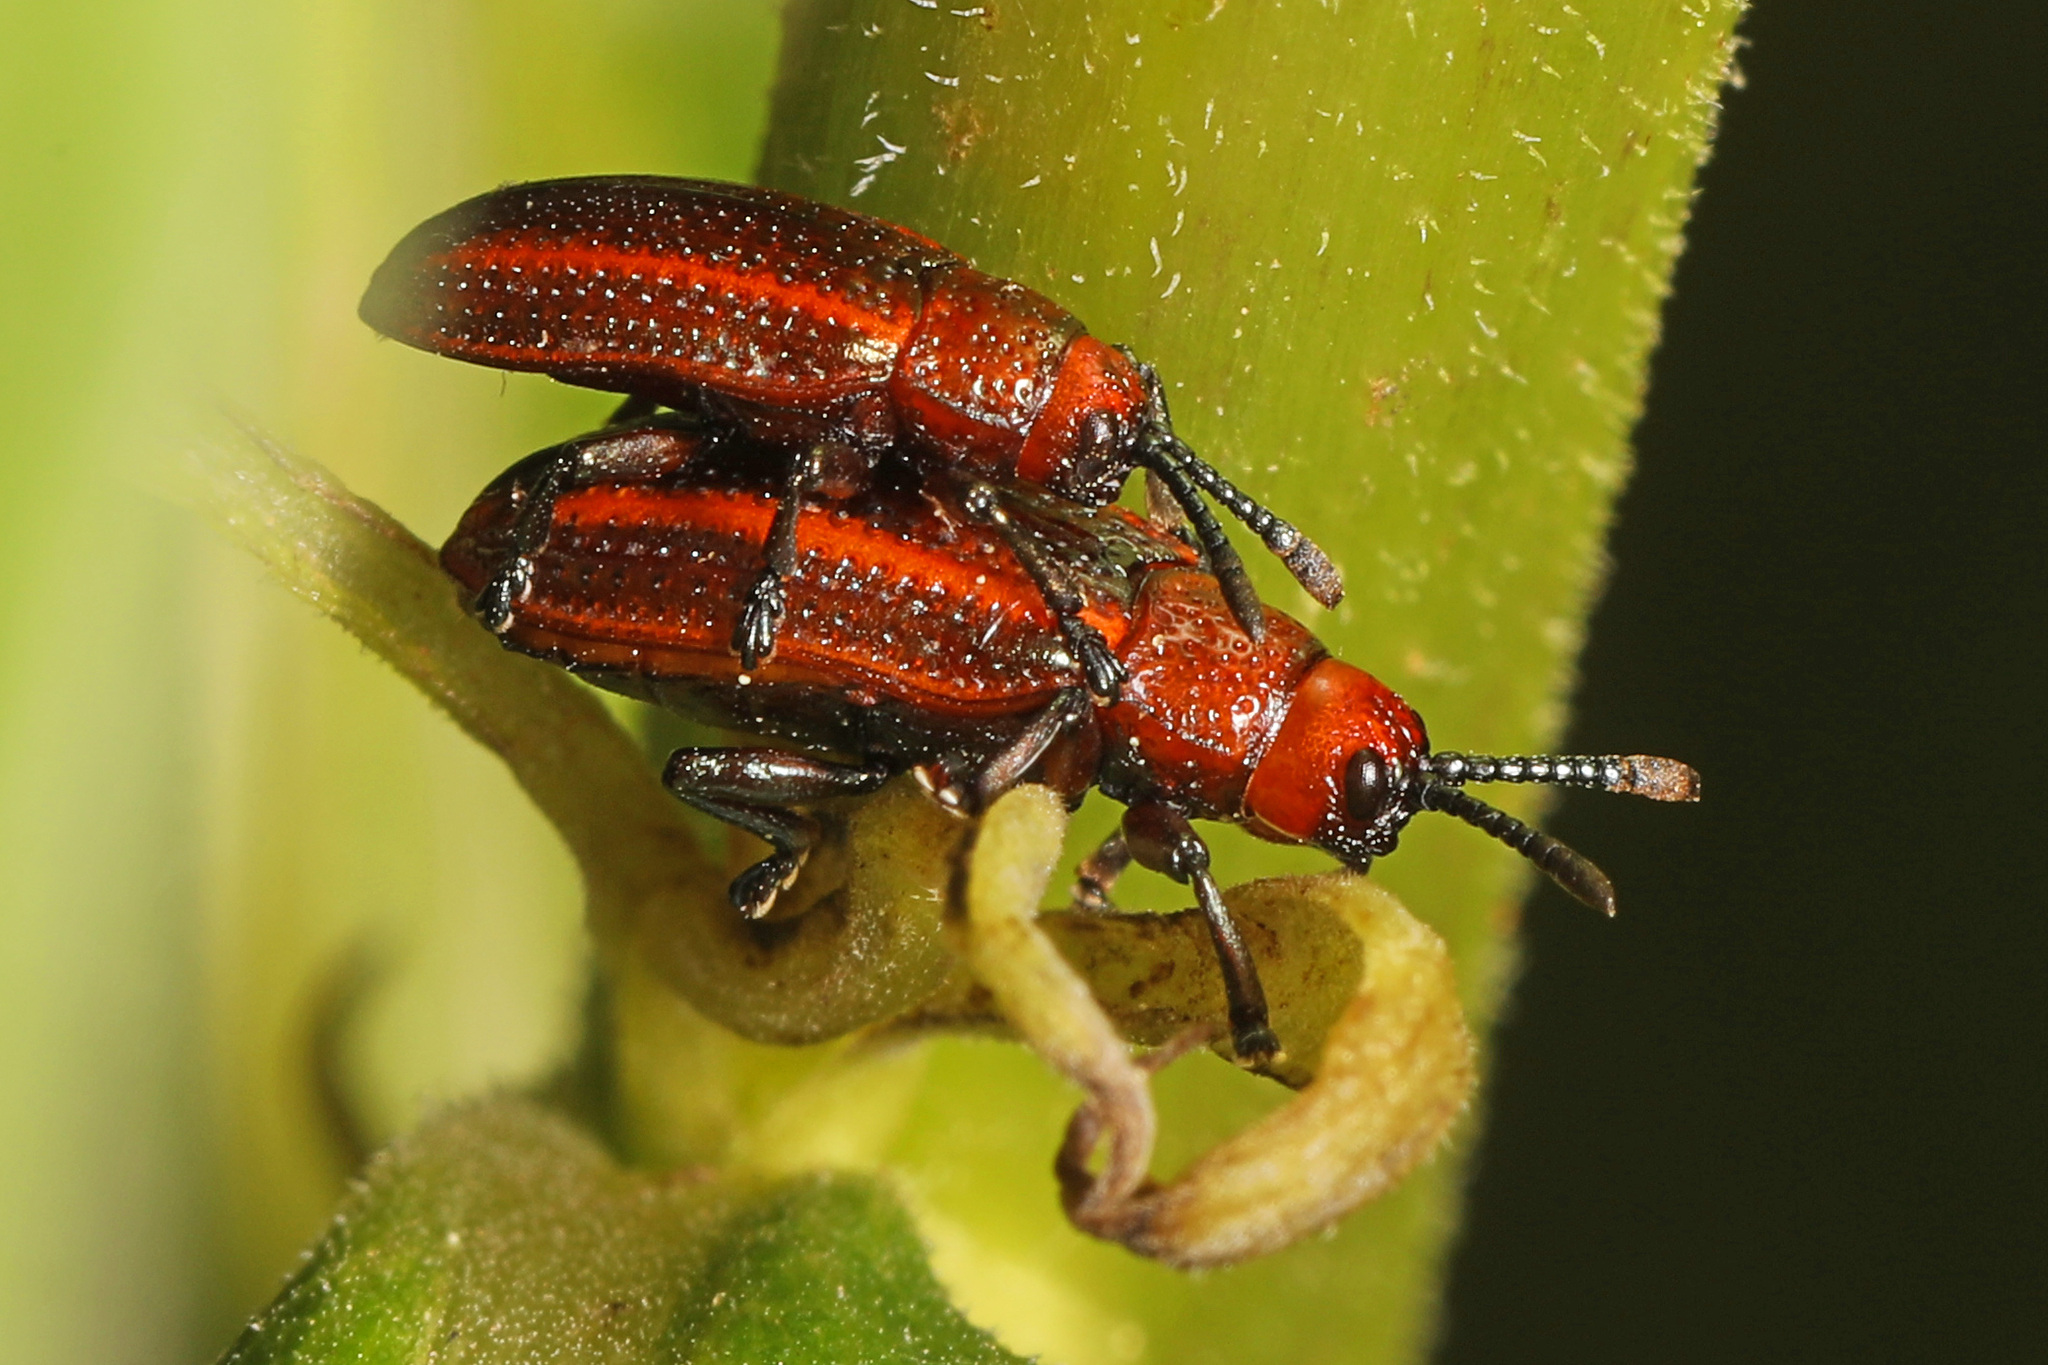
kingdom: Animalia
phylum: Arthropoda
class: Insecta
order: Coleoptera
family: Chrysomelidae
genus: Microrhopala
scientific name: Microrhopala vittata
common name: Goldenrod leaf miner beetle
